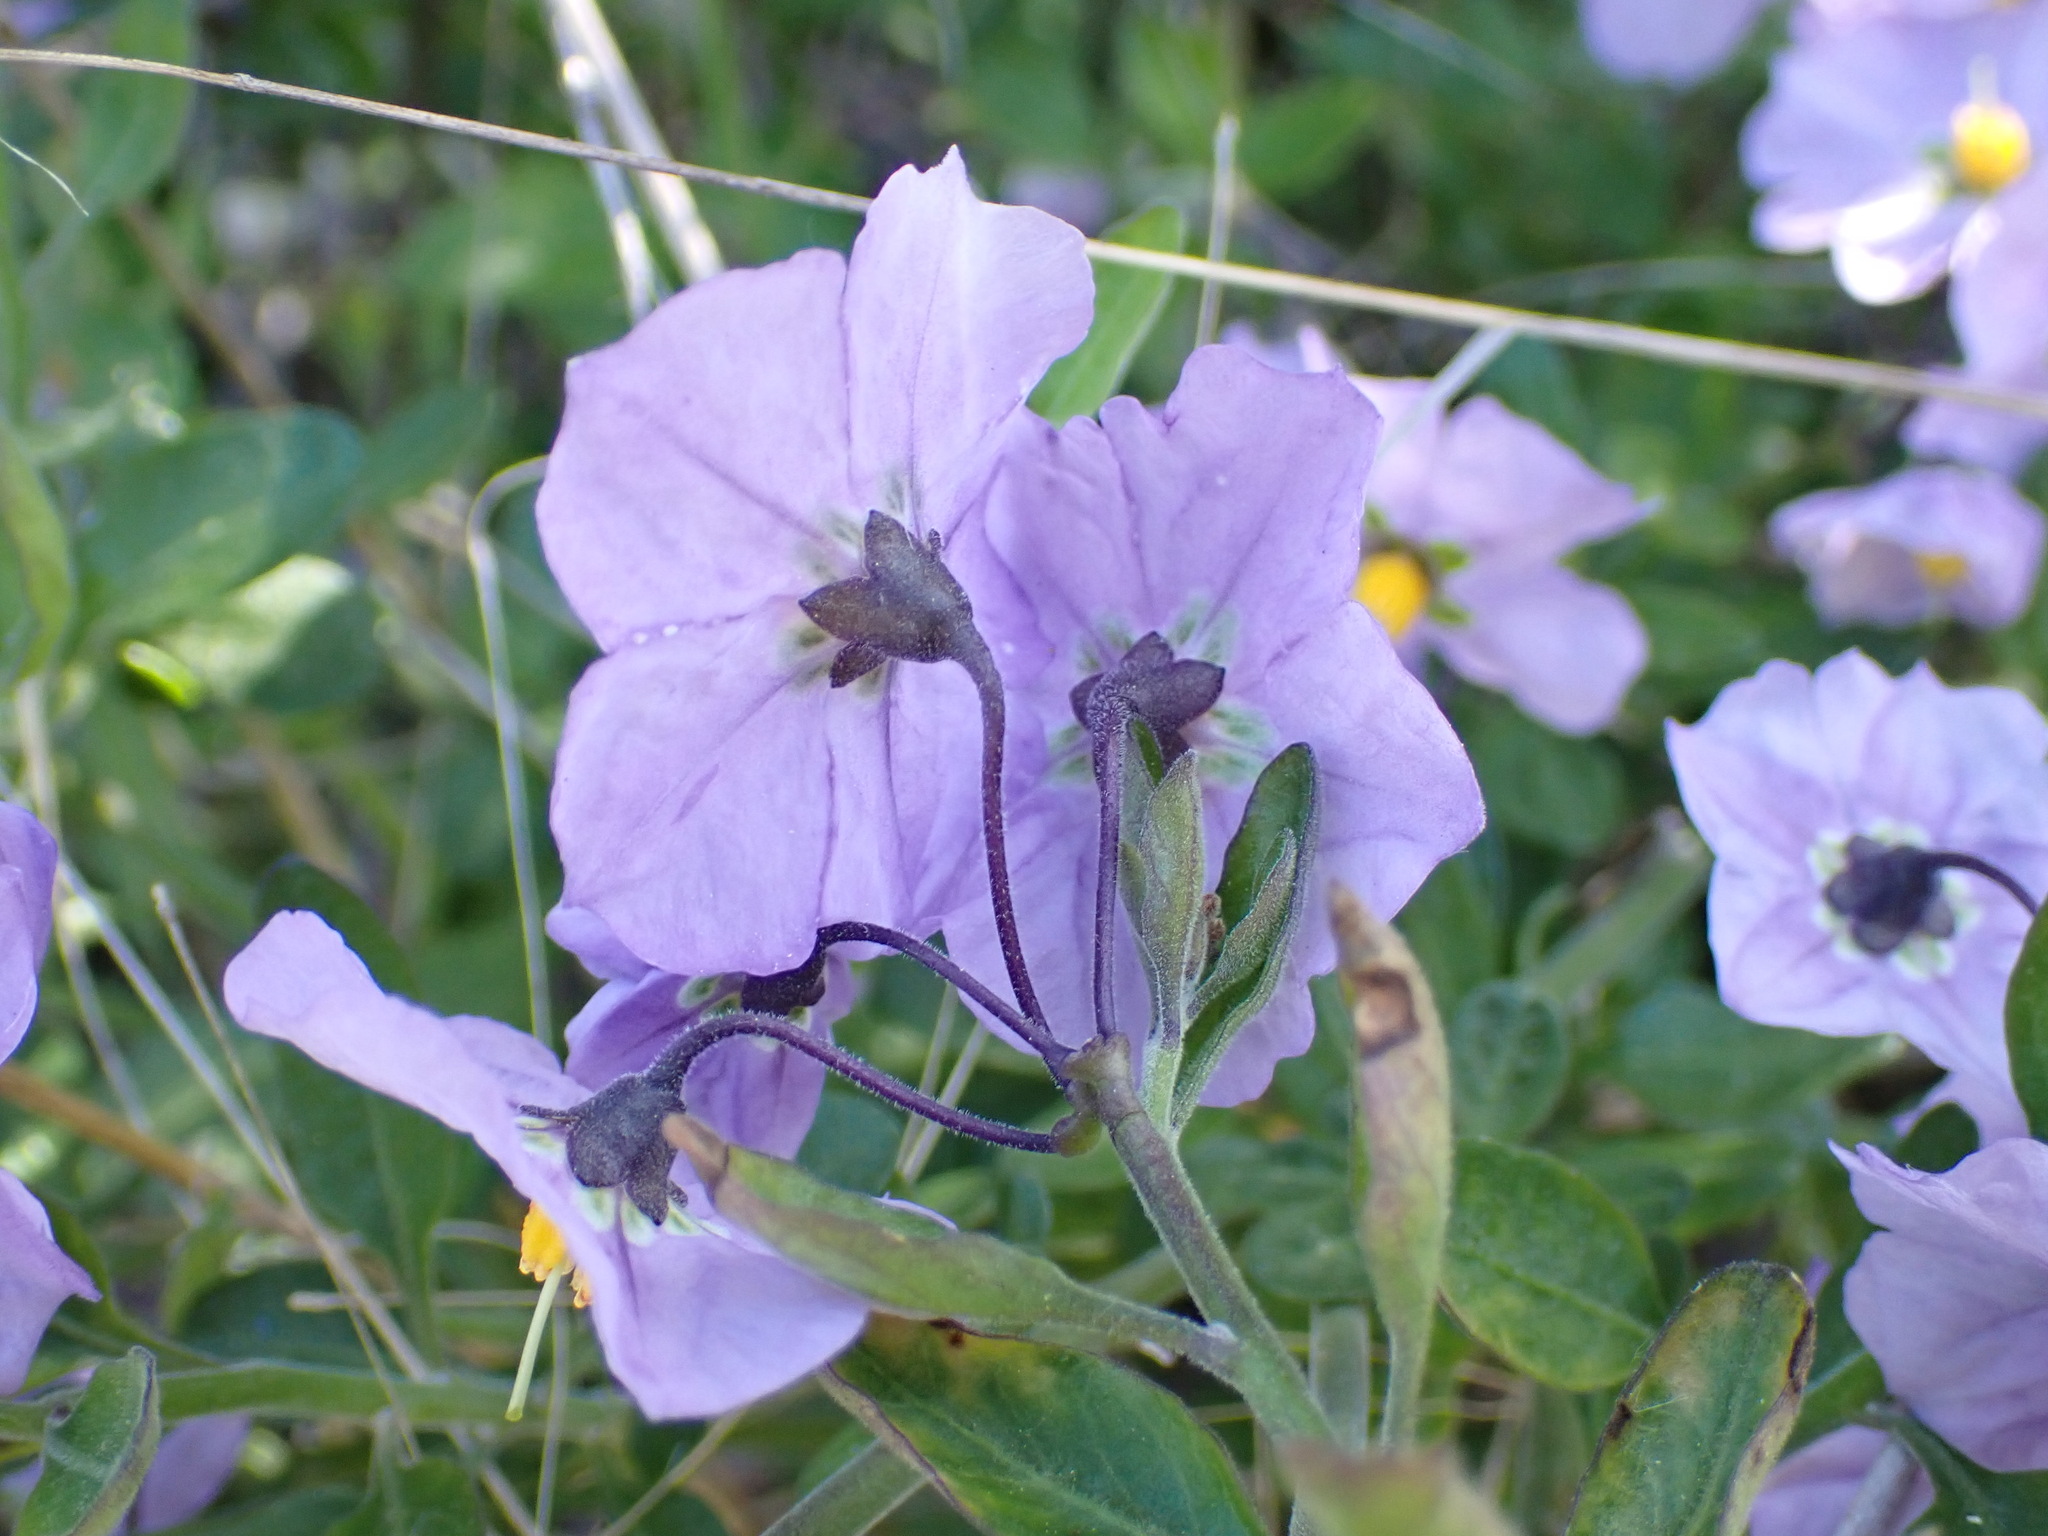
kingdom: Plantae
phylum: Tracheophyta
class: Magnoliopsida
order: Solanales
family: Solanaceae
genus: Solanum
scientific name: Solanum umbelliferum
